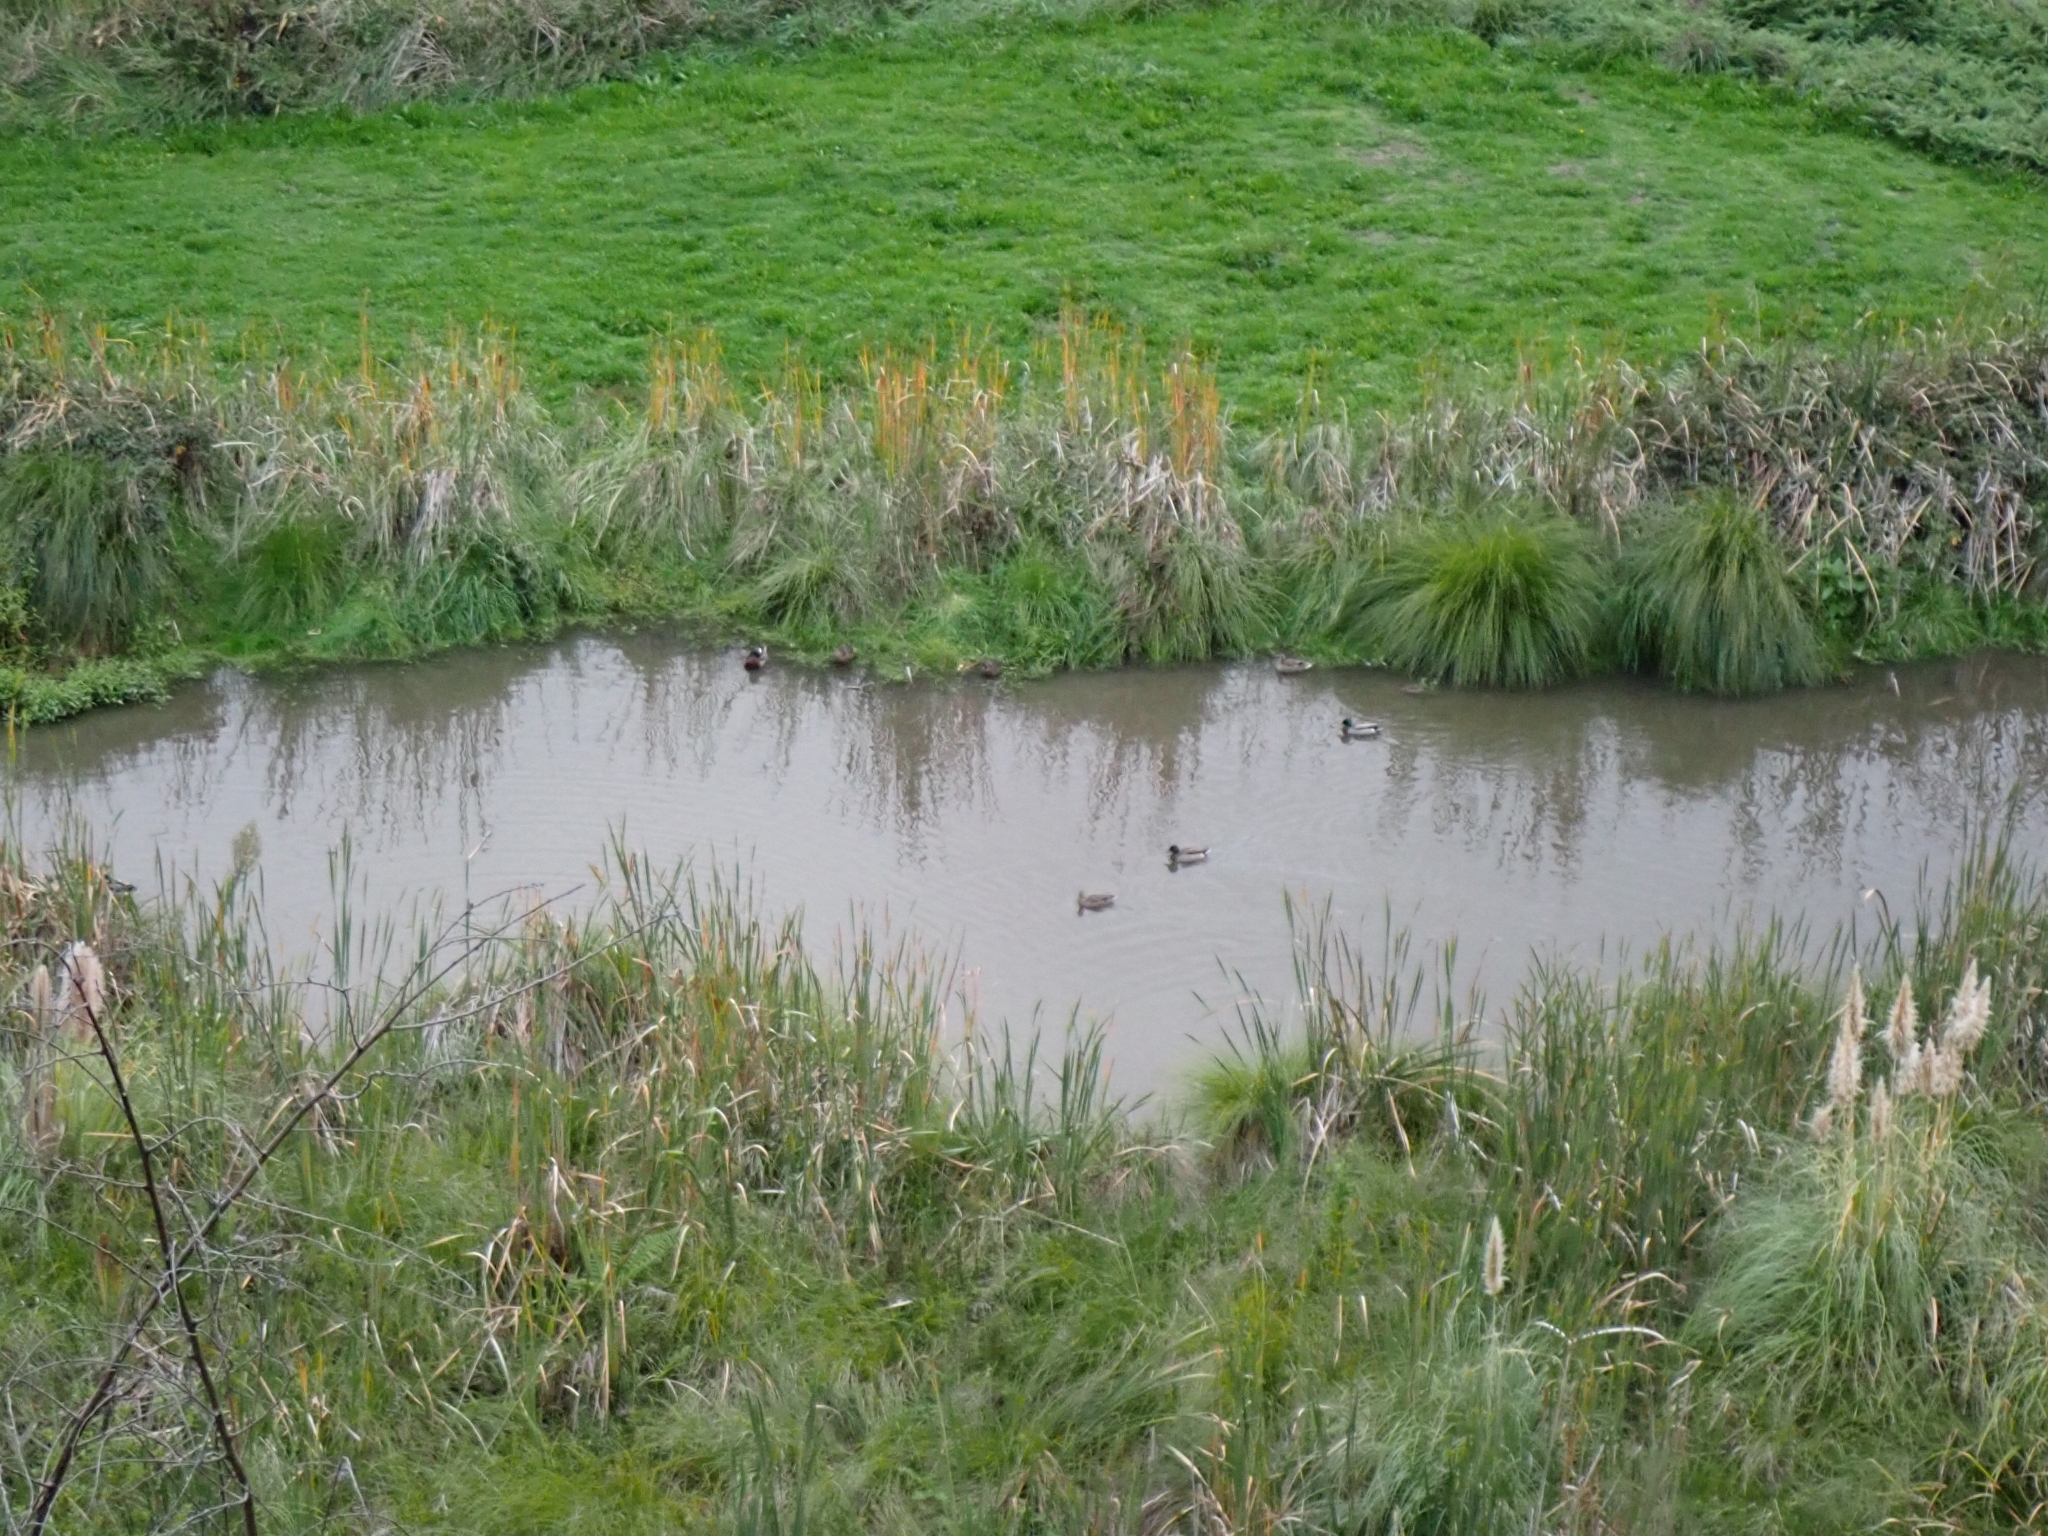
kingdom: Animalia
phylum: Chordata
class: Aves
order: Anseriformes
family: Anatidae
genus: Anas
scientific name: Anas platyrhynchos
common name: Mallard
